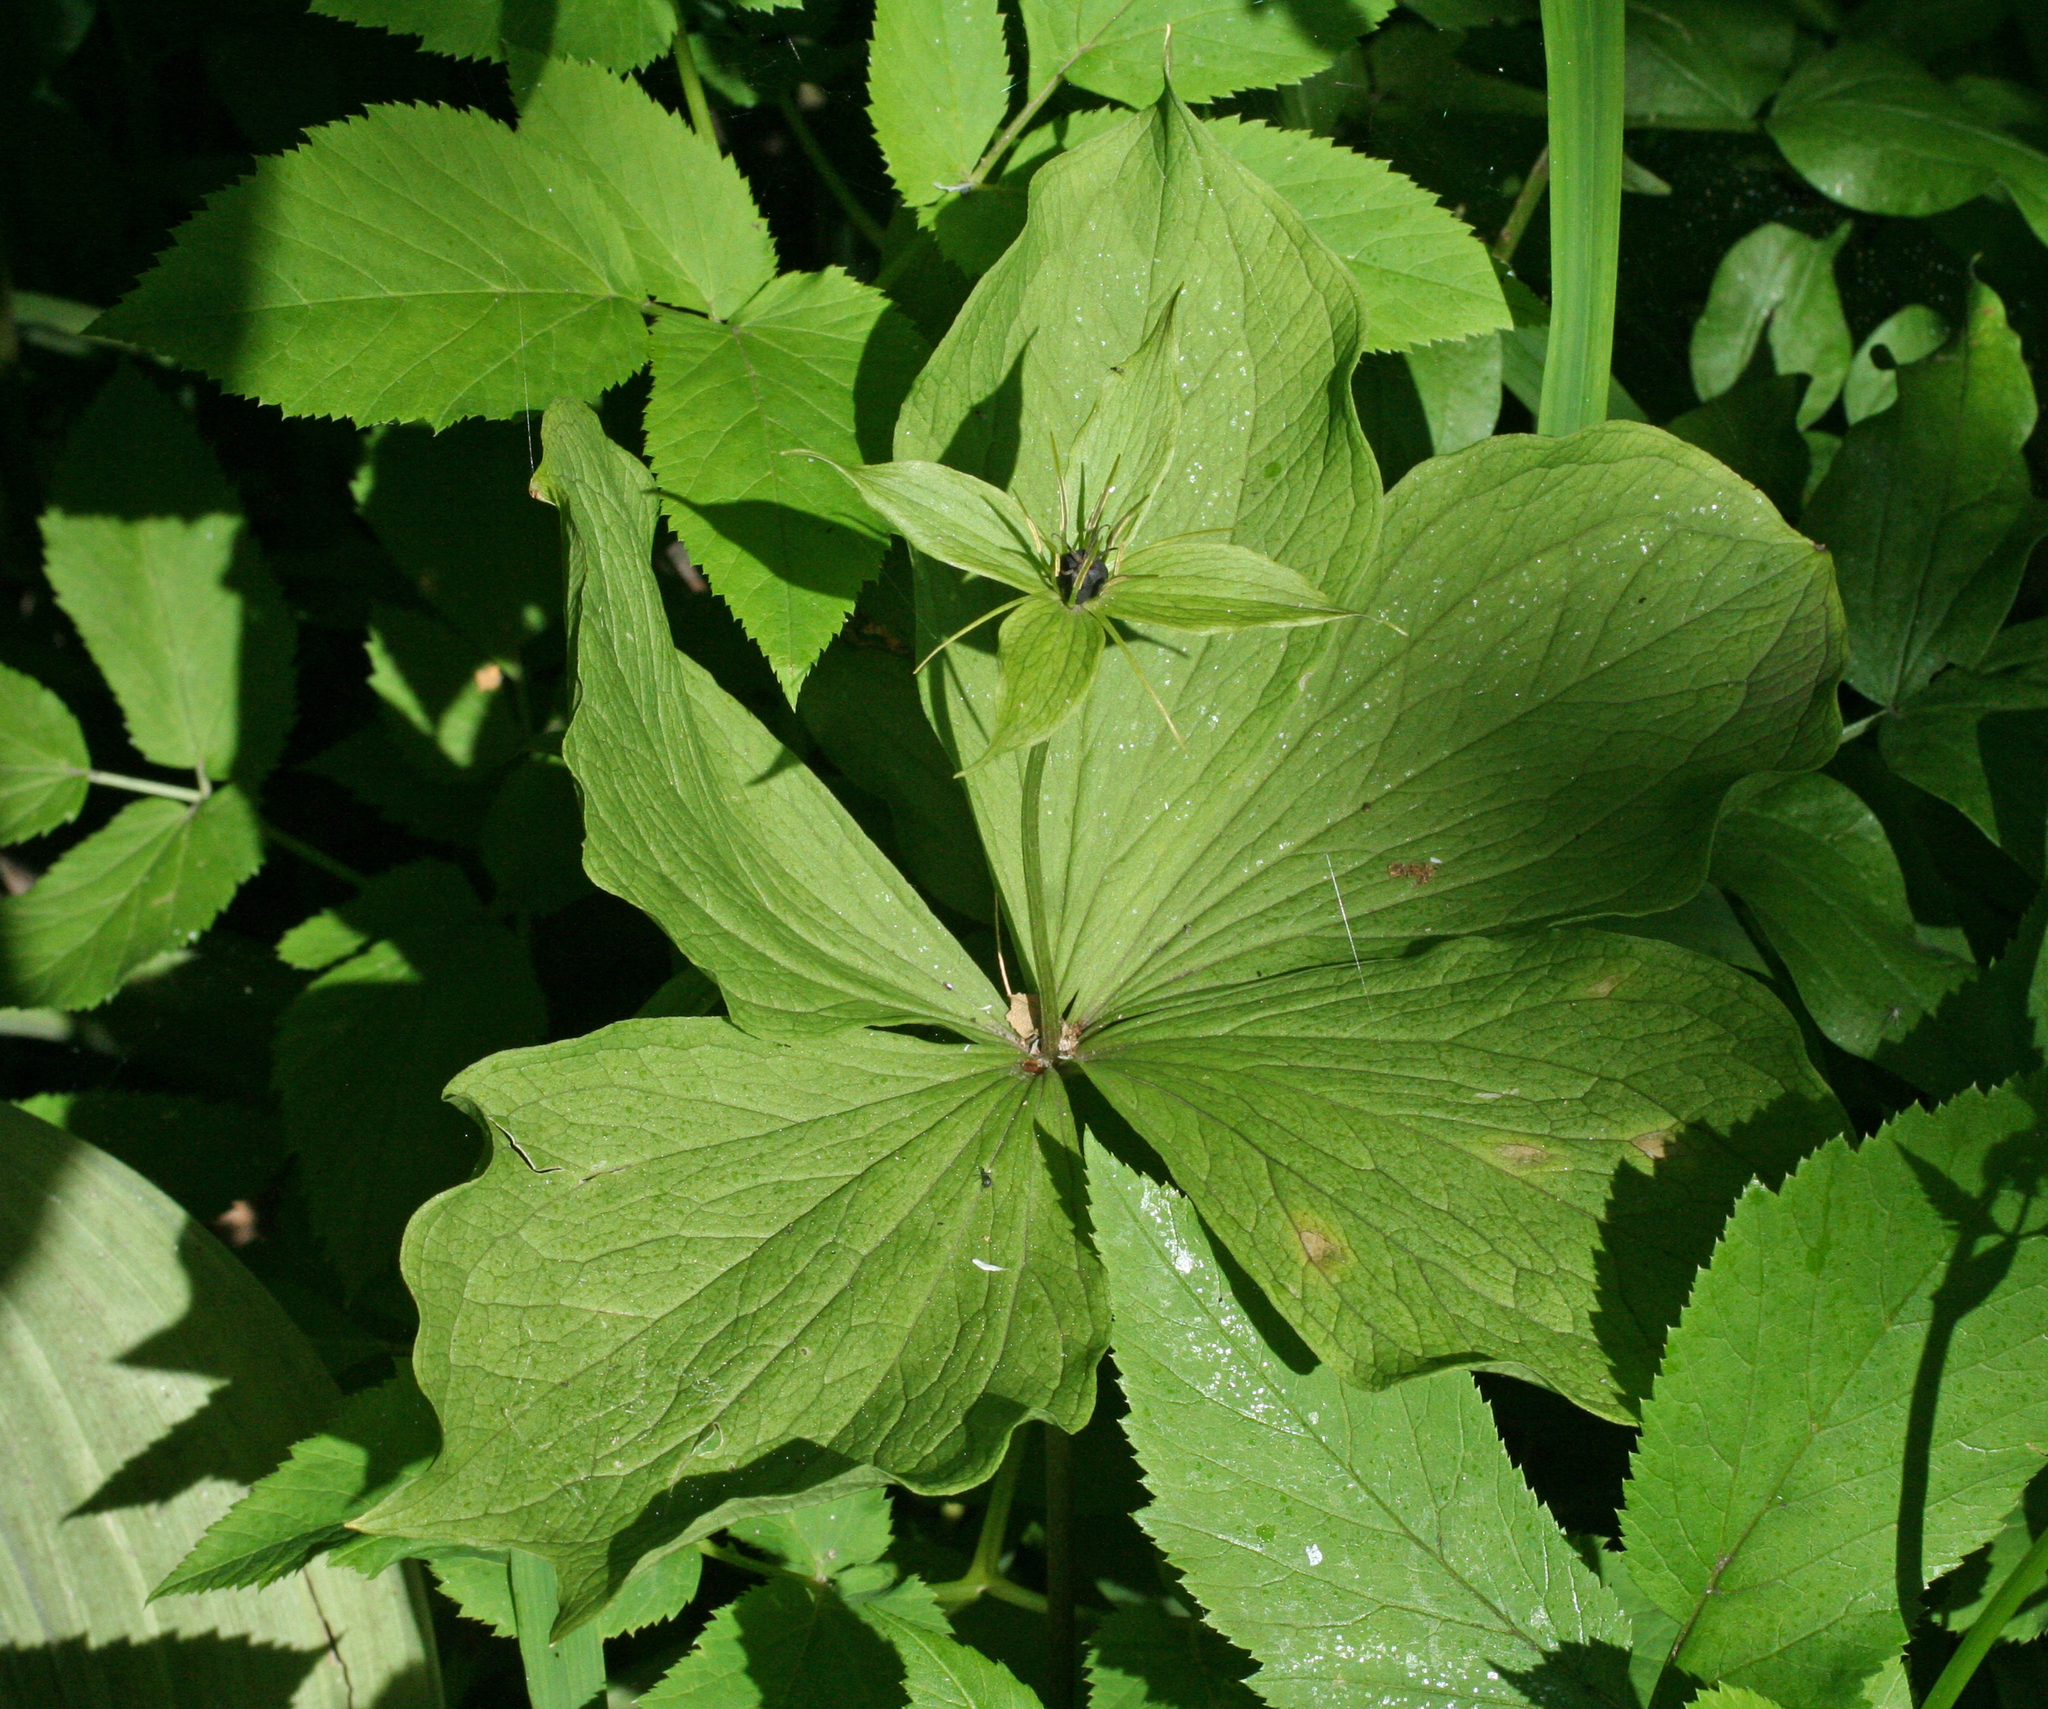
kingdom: Plantae
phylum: Tracheophyta
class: Liliopsida
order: Liliales
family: Melanthiaceae
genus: Paris
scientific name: Paris quadrifolia
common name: Herb-paris
